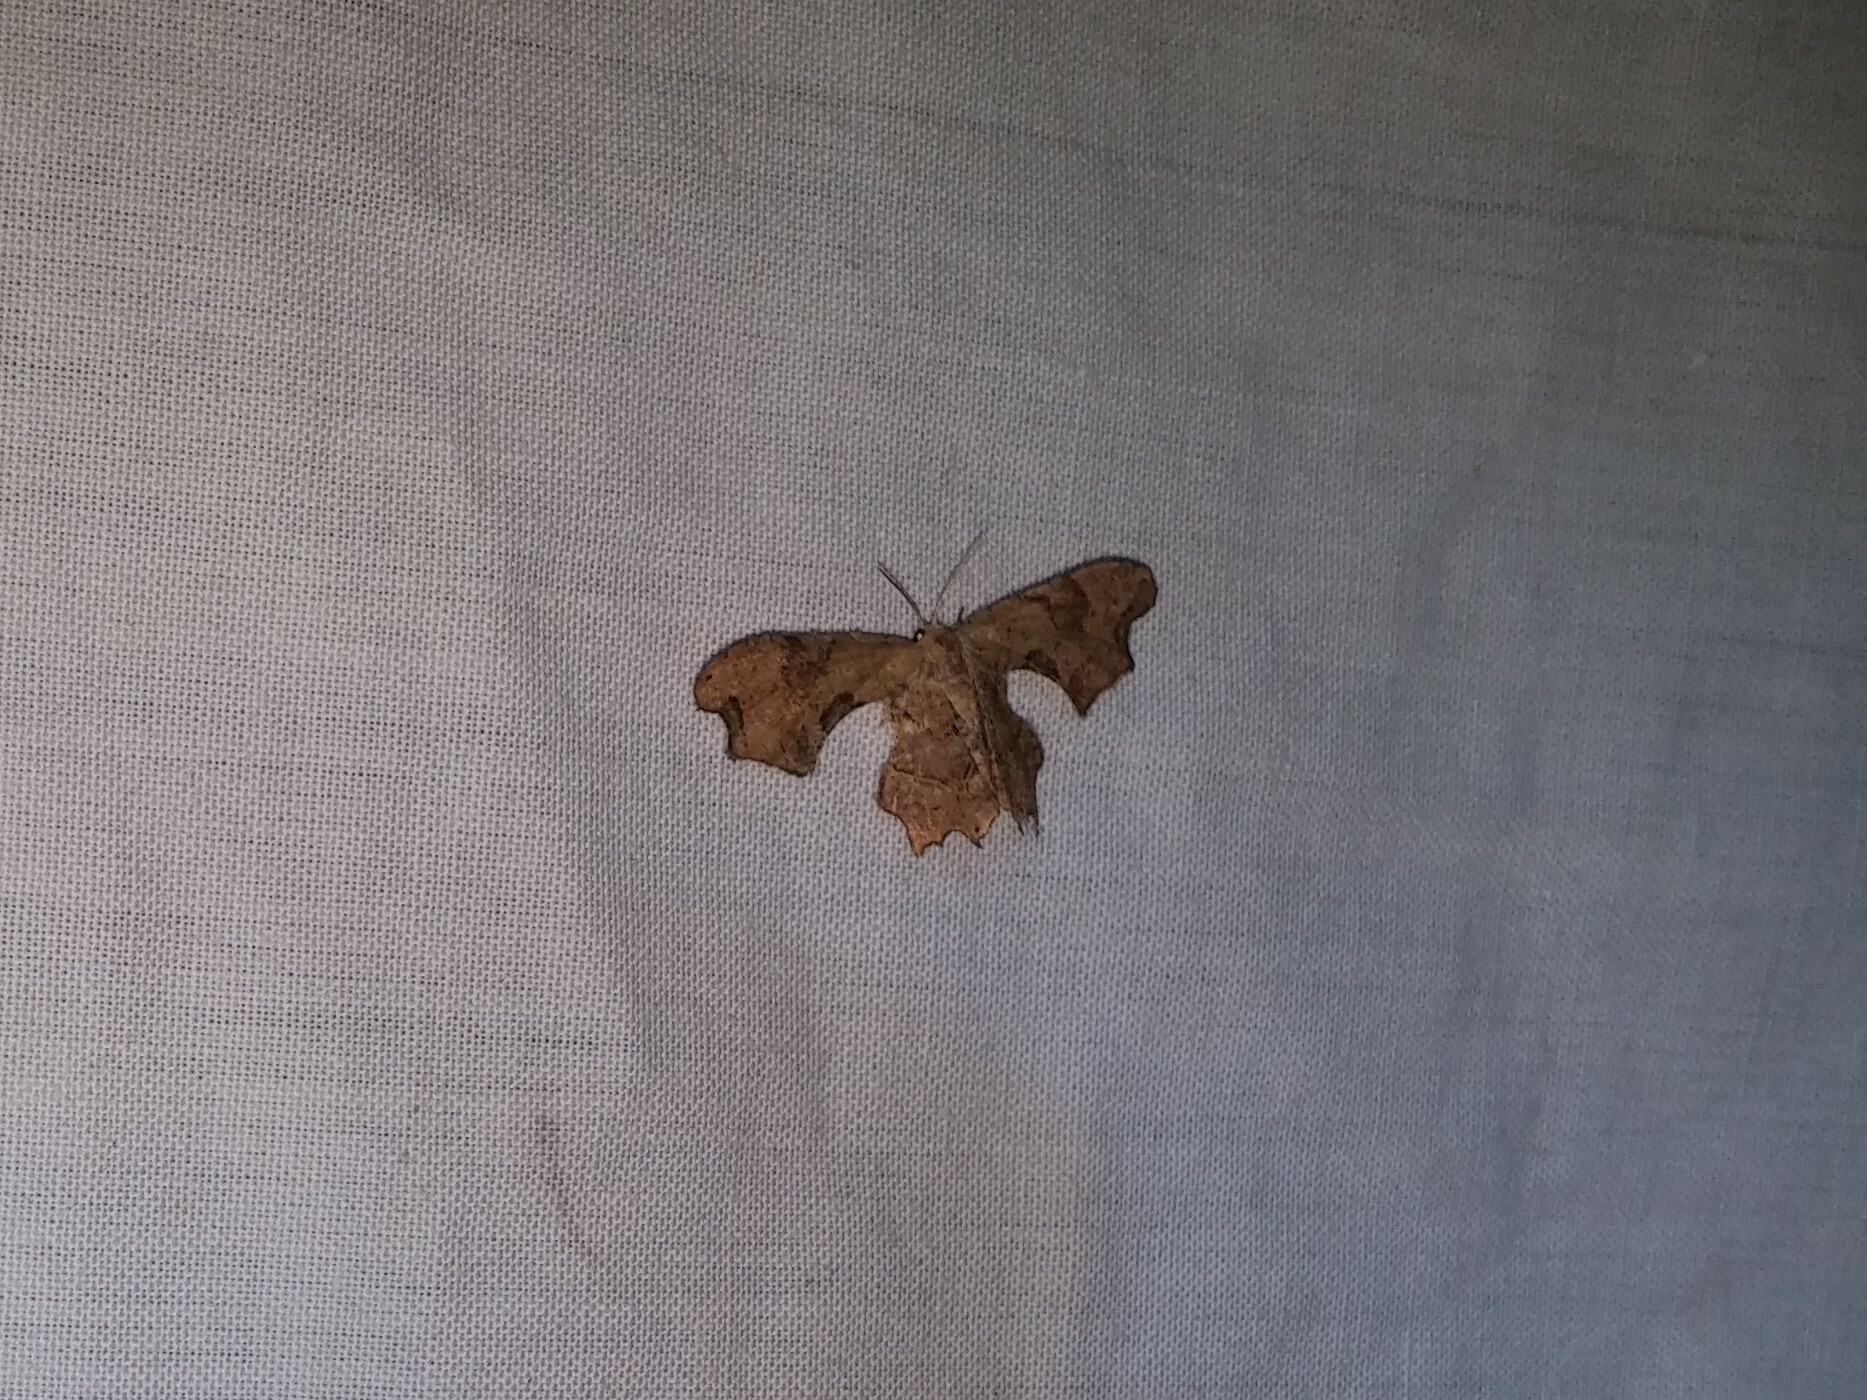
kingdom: Animalia
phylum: Arthropoda
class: Insecta
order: Lepidoptera
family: Uraniidae
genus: Epiplema
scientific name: Epiplema Calledapteryx dryopterata
